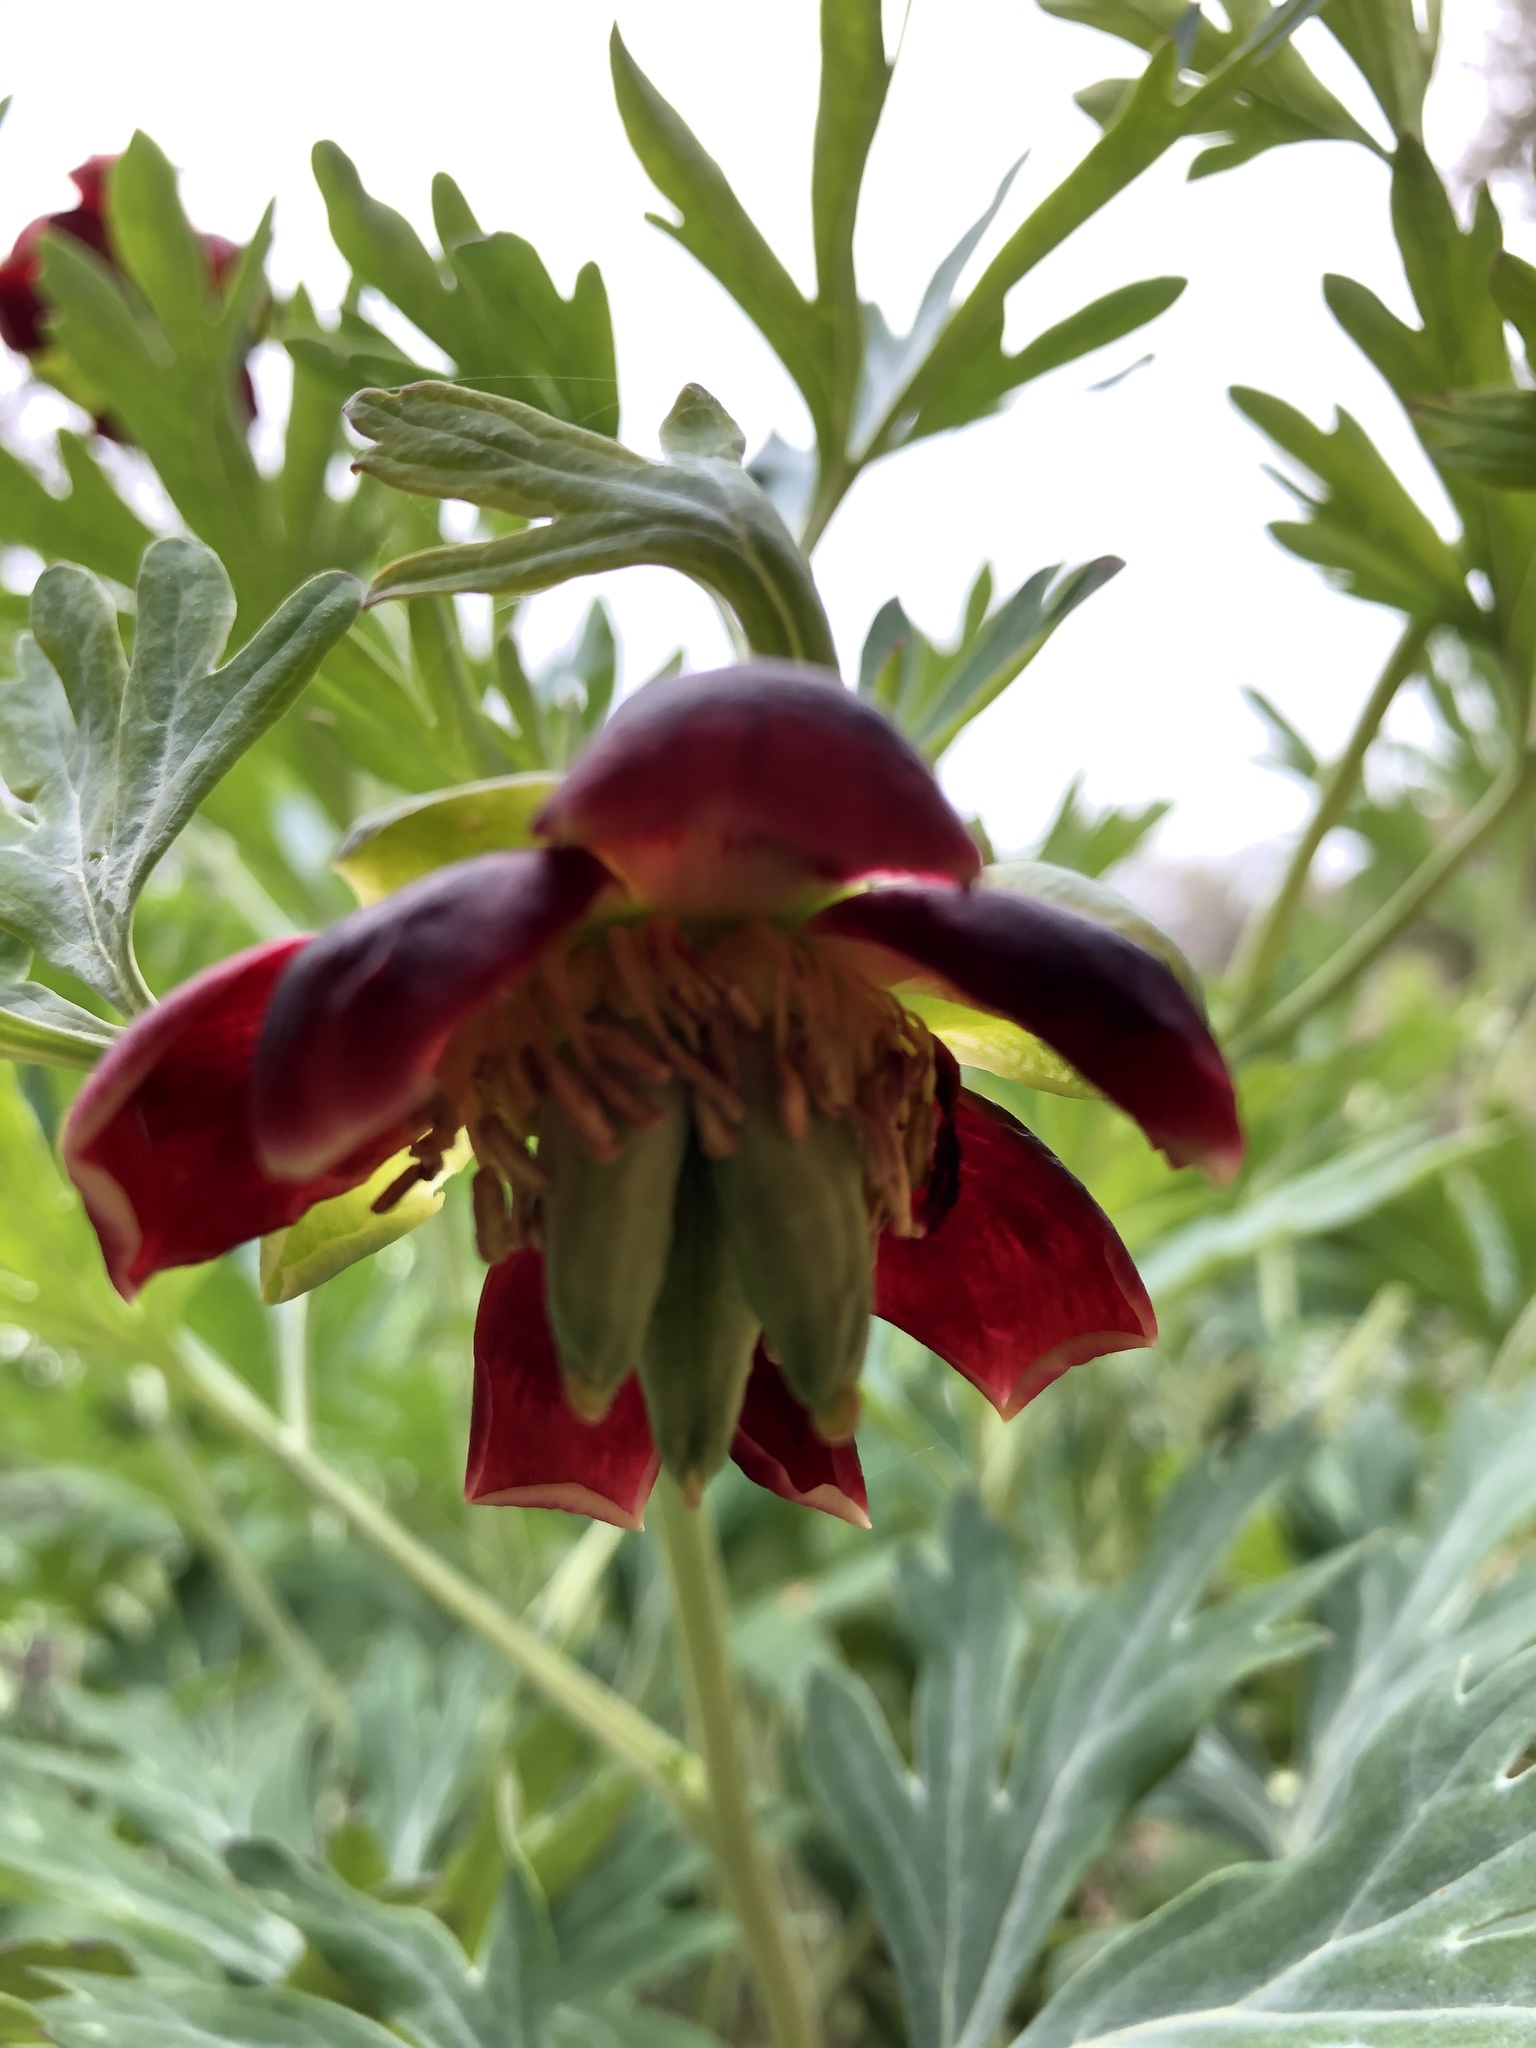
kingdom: Plantae
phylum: Tracheophyta
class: Magnoliopsida
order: Saxifragales
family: Paeoniaceae
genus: Paeonia
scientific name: Paeonia californica
